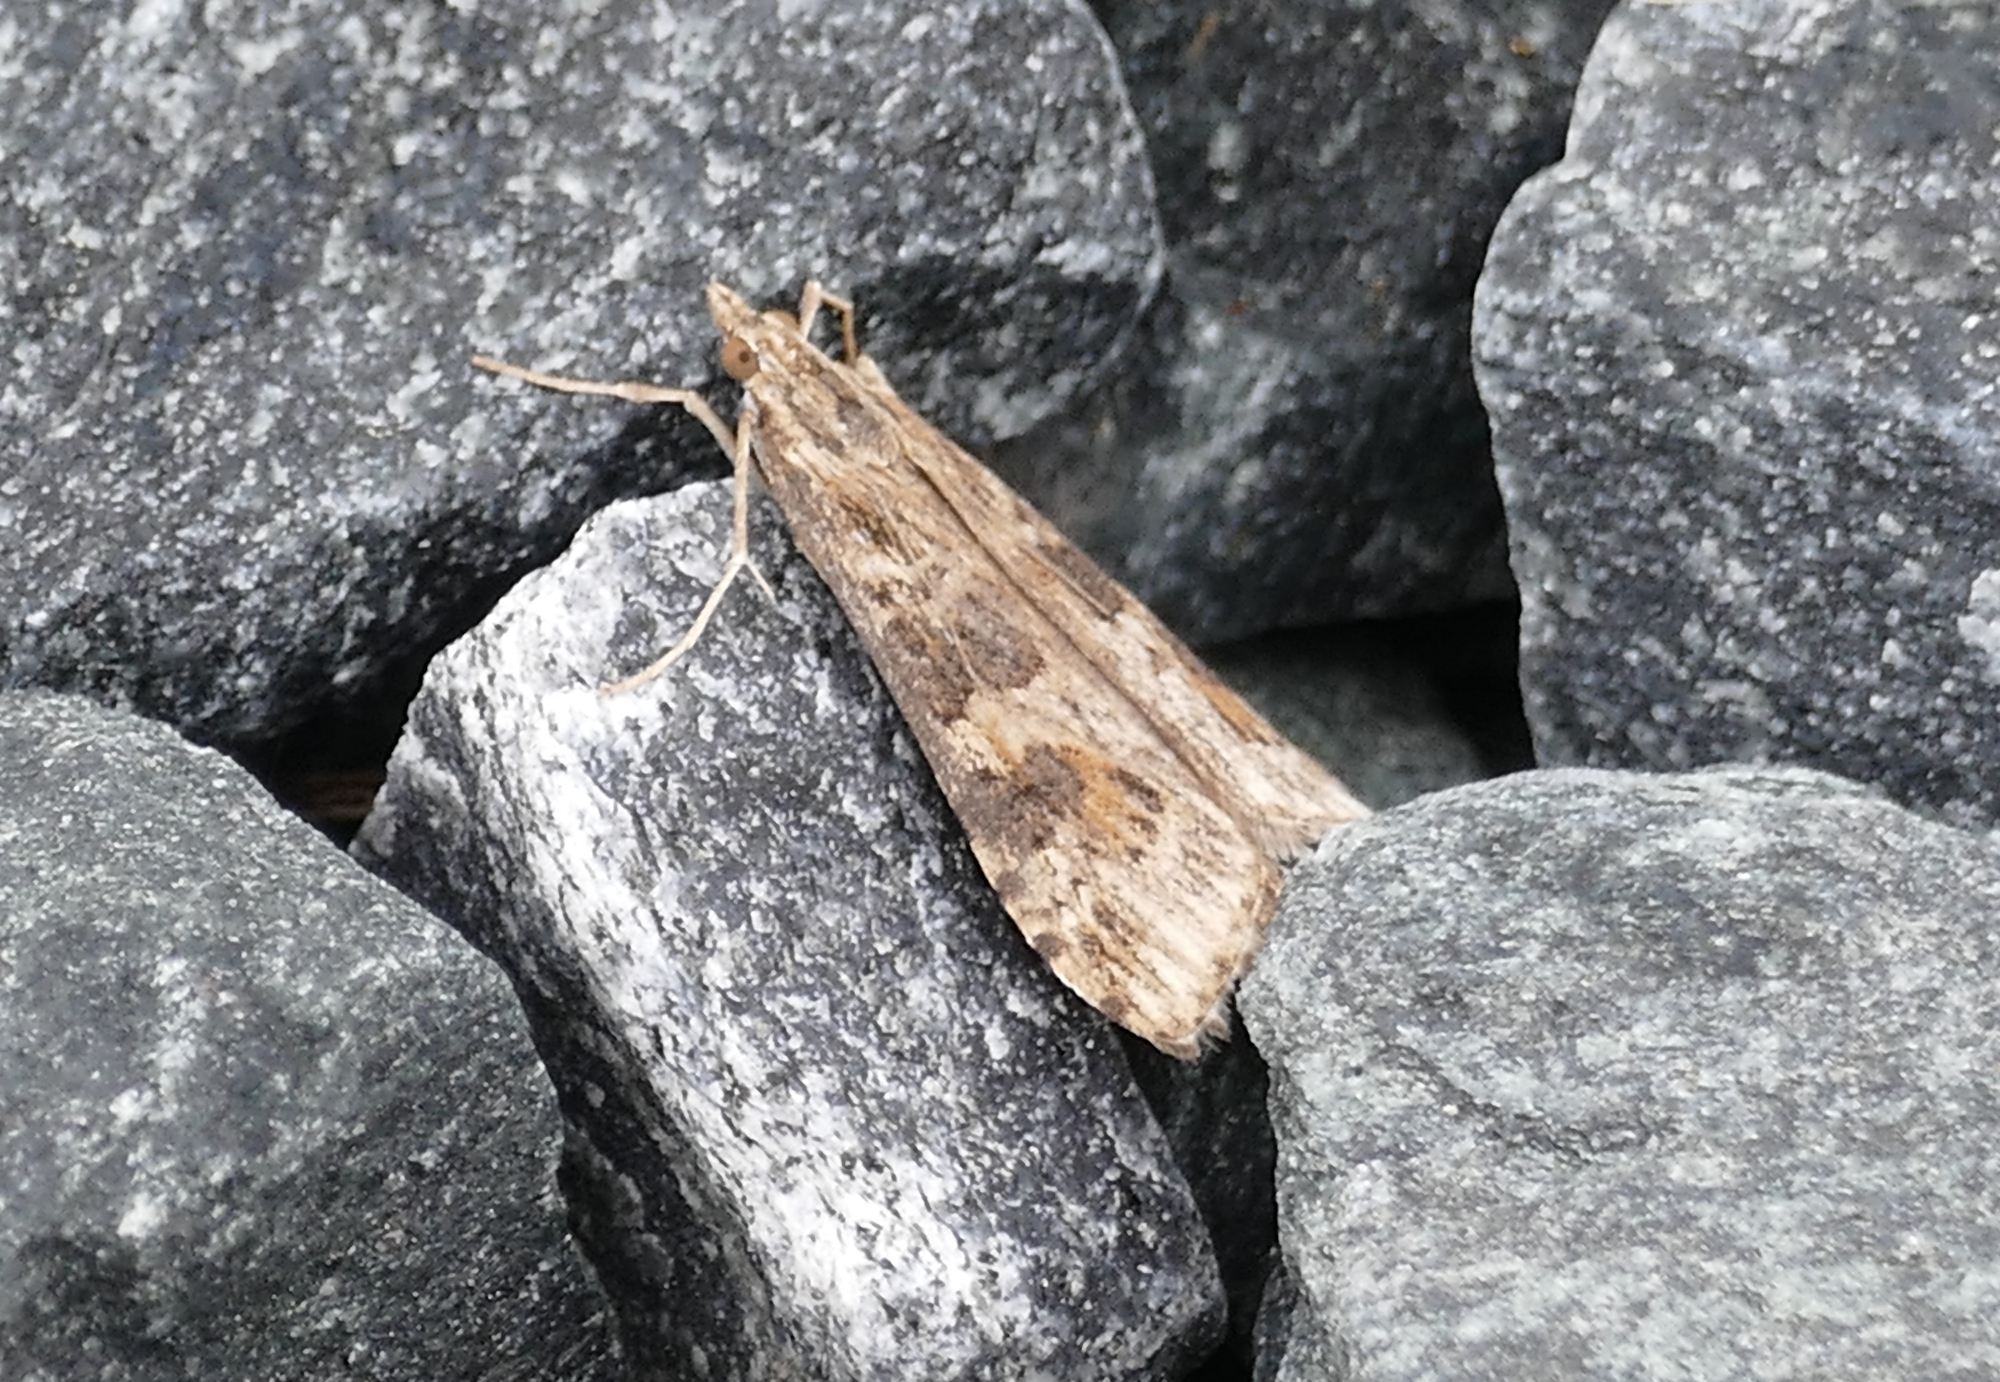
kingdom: Animalia
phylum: Arthropoda
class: Insecta
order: Lepidoptera
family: Crambidae
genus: Nomophila
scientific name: Nomophila nearctica
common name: American rush veneer
